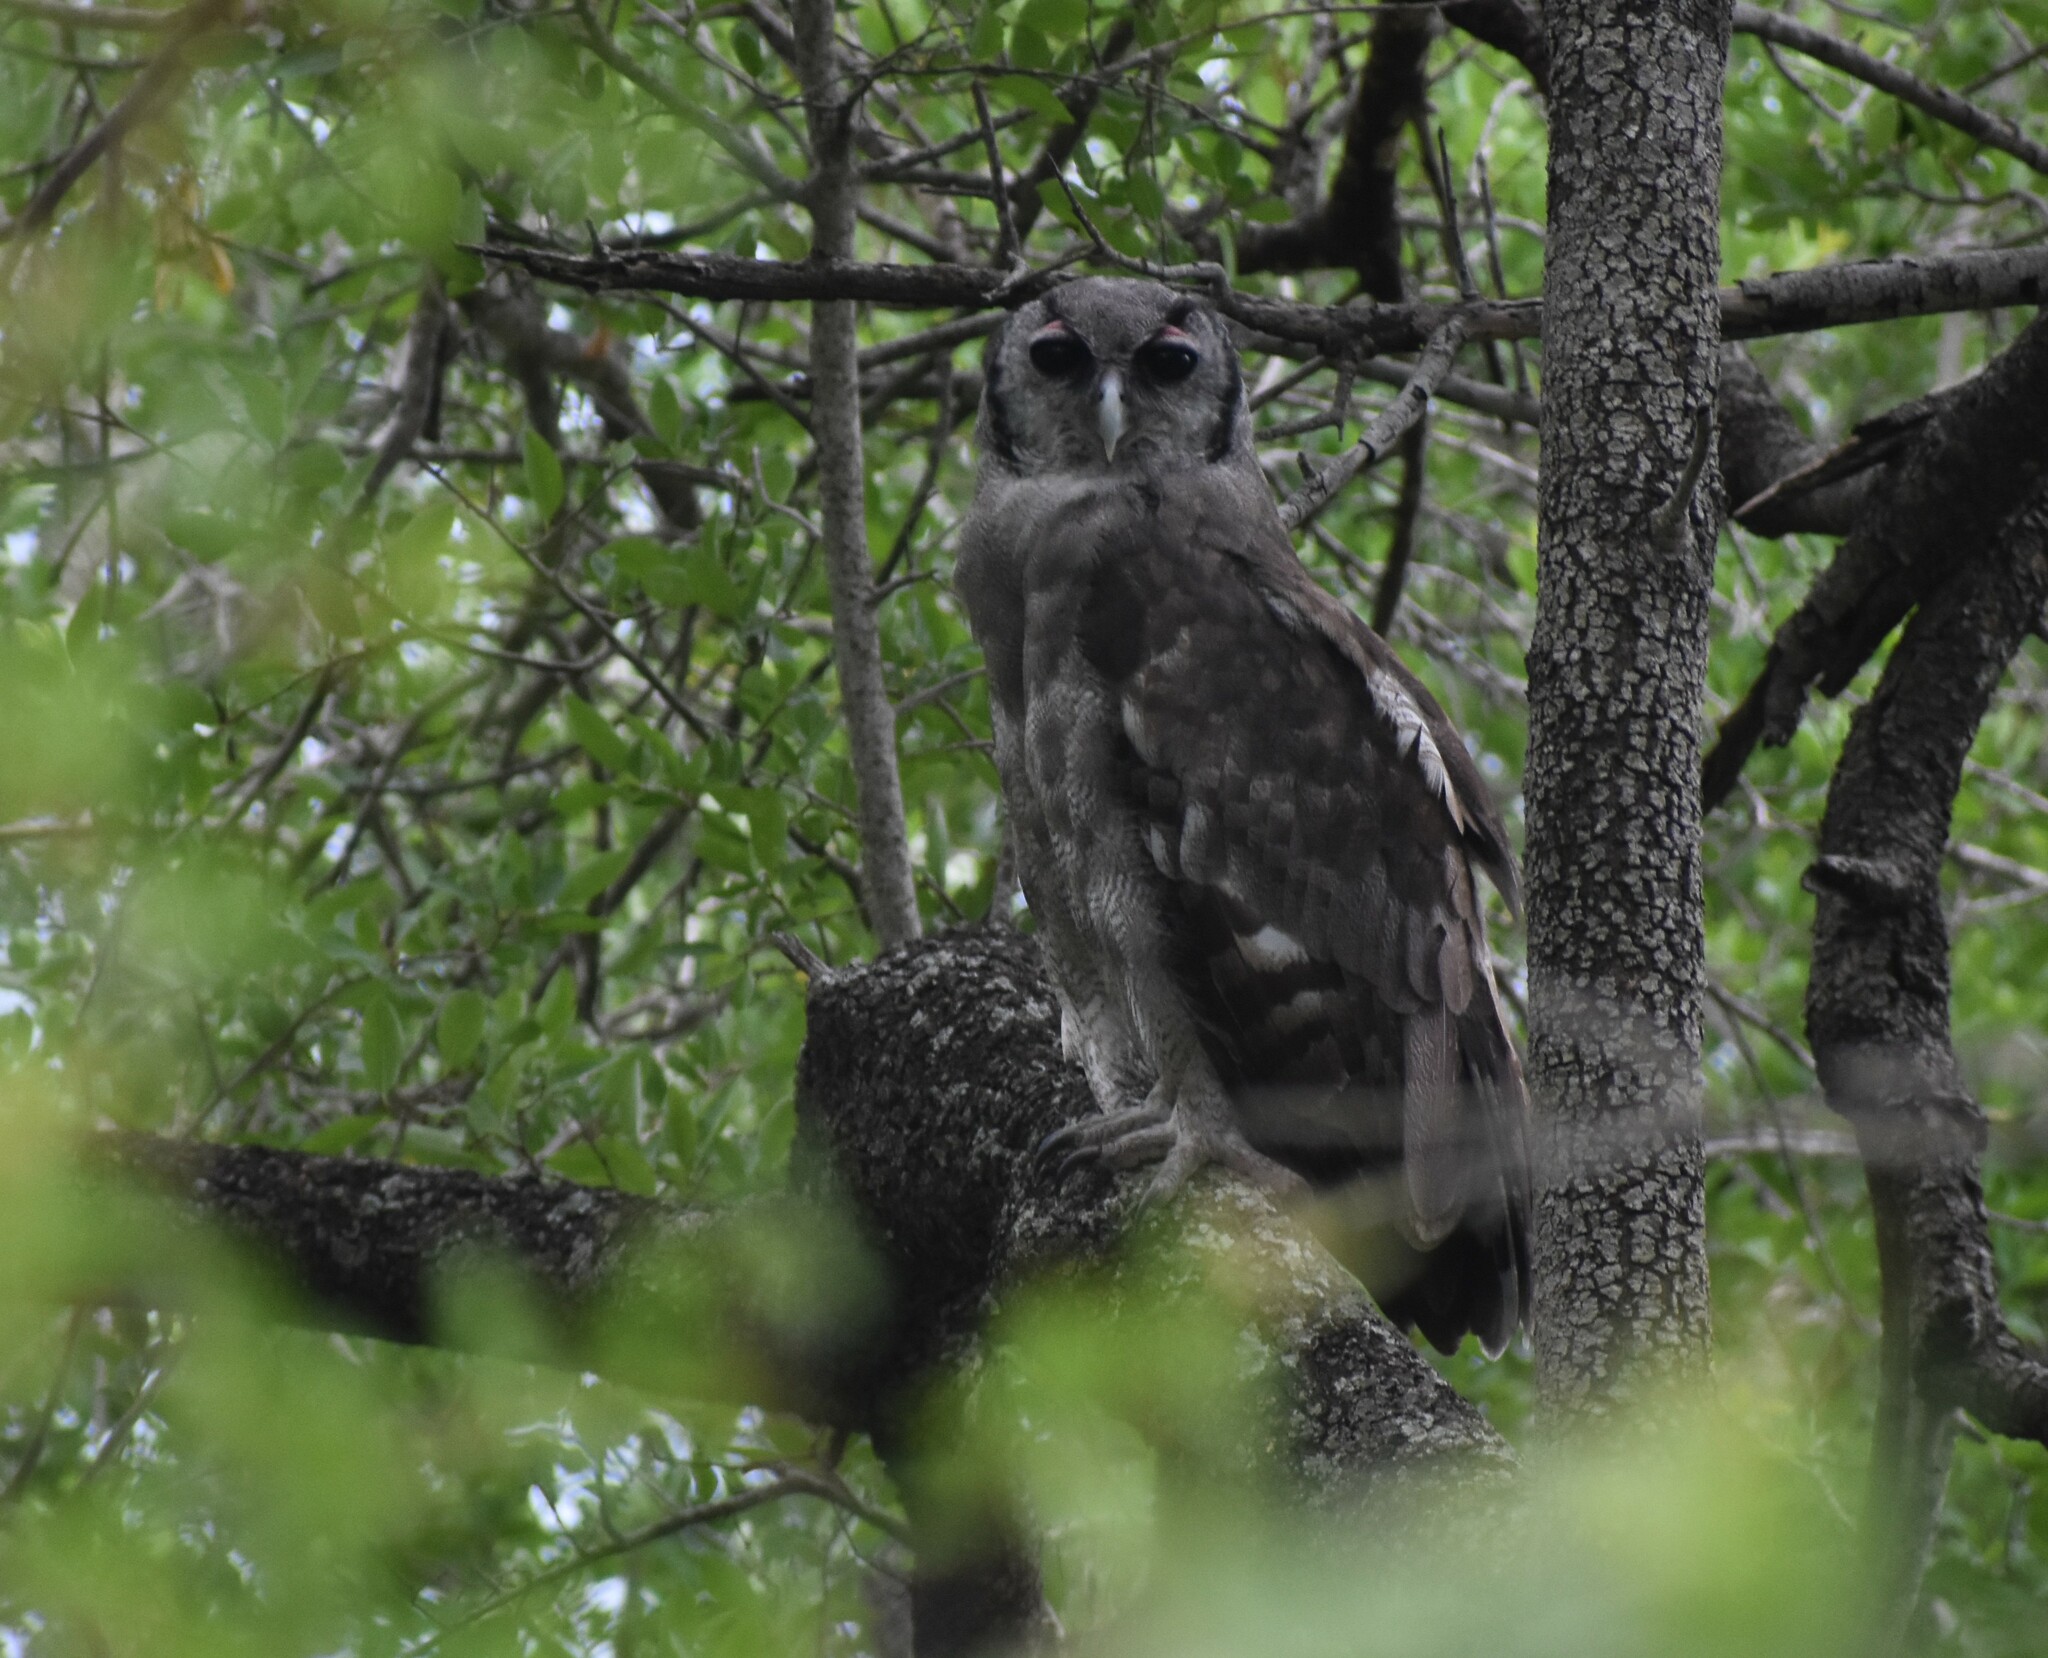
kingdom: Animalia
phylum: Chordata
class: Aves
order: Strigiformes
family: Strigidae
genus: Bubo
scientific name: Bubo lacteus
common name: Verreaux's eagle-owl
